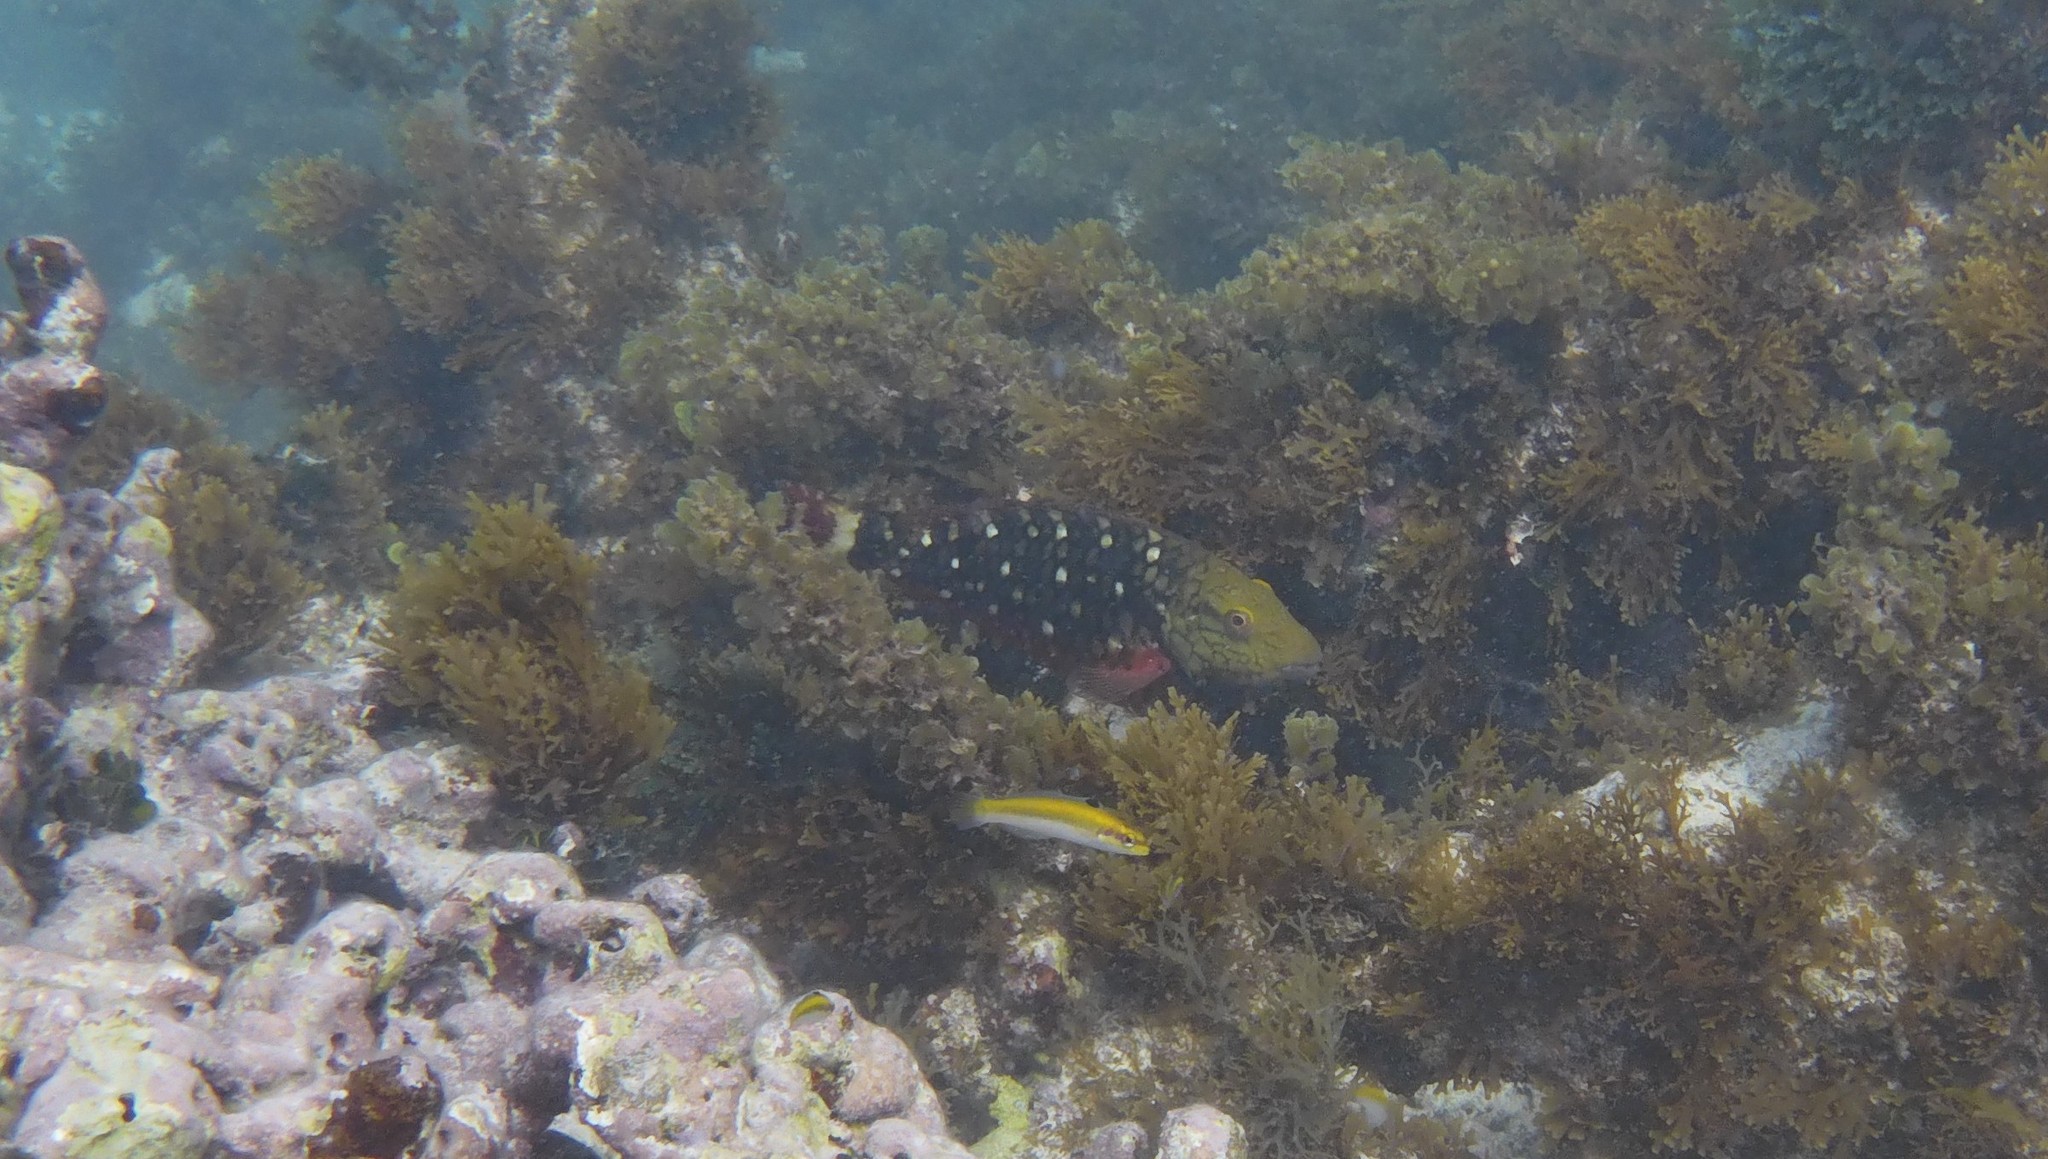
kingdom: Animalia
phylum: Chordata
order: Perciformes
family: Scaridae
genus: Sparisoma
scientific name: Sparisoma viride
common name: Stoplight parrotfish
